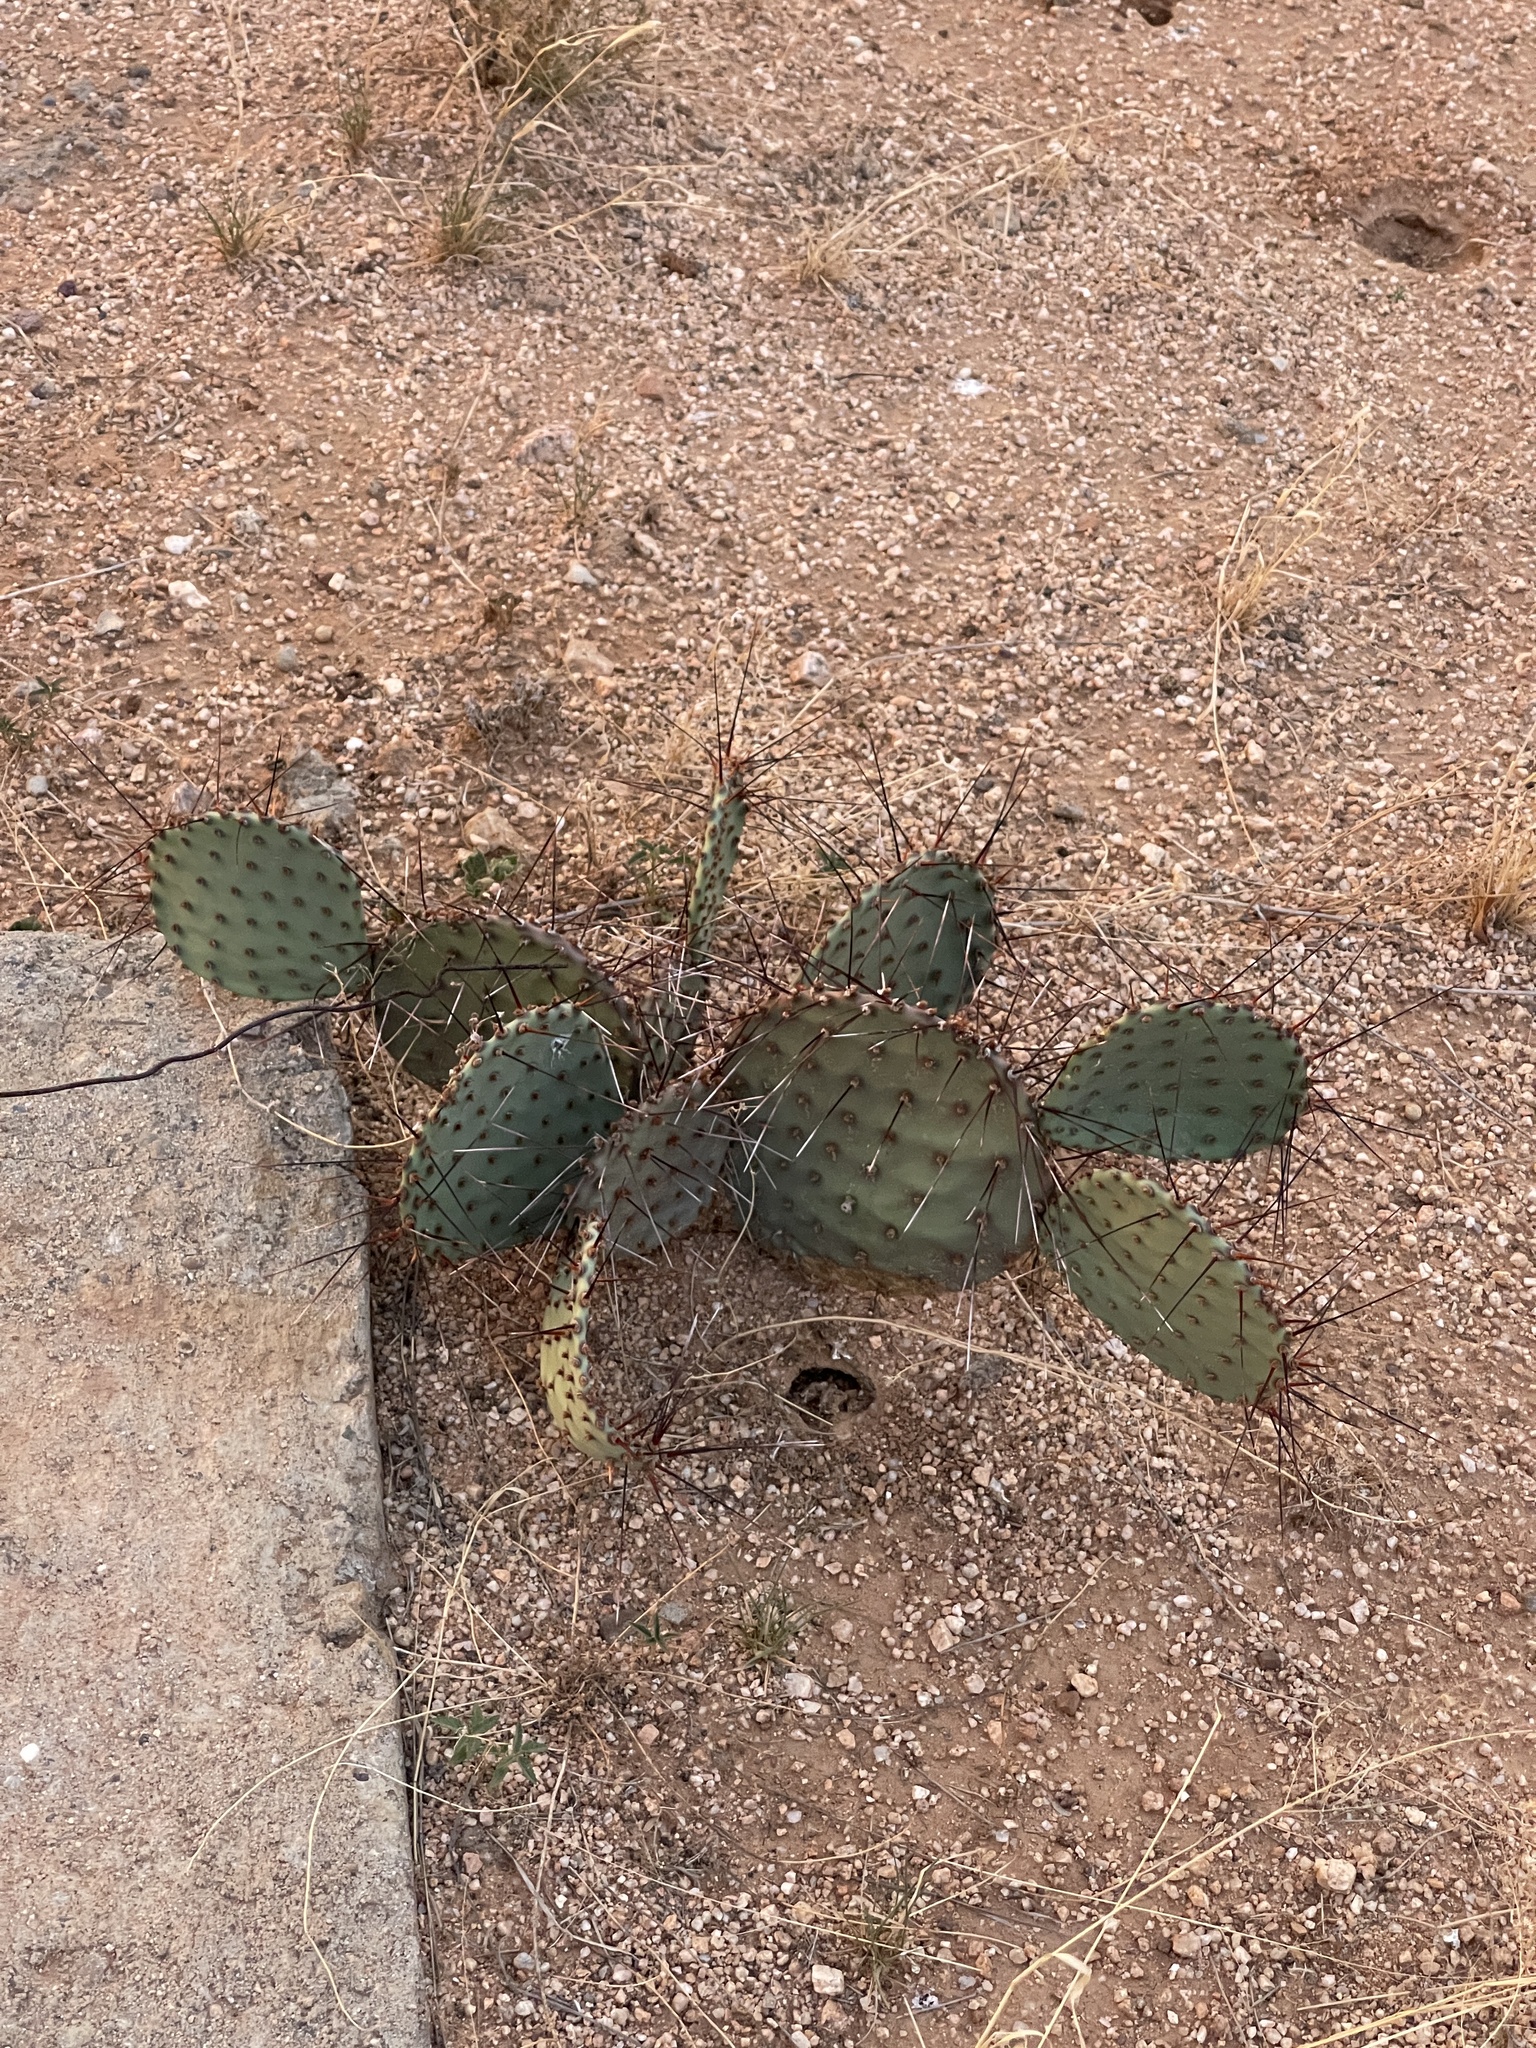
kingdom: Plantae
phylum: Tracheophyta
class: Magnoliopsida
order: Caryophyllales
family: Cactaceae
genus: Opuntia
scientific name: Opuntia macrocentra
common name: Purple prickly-pear
